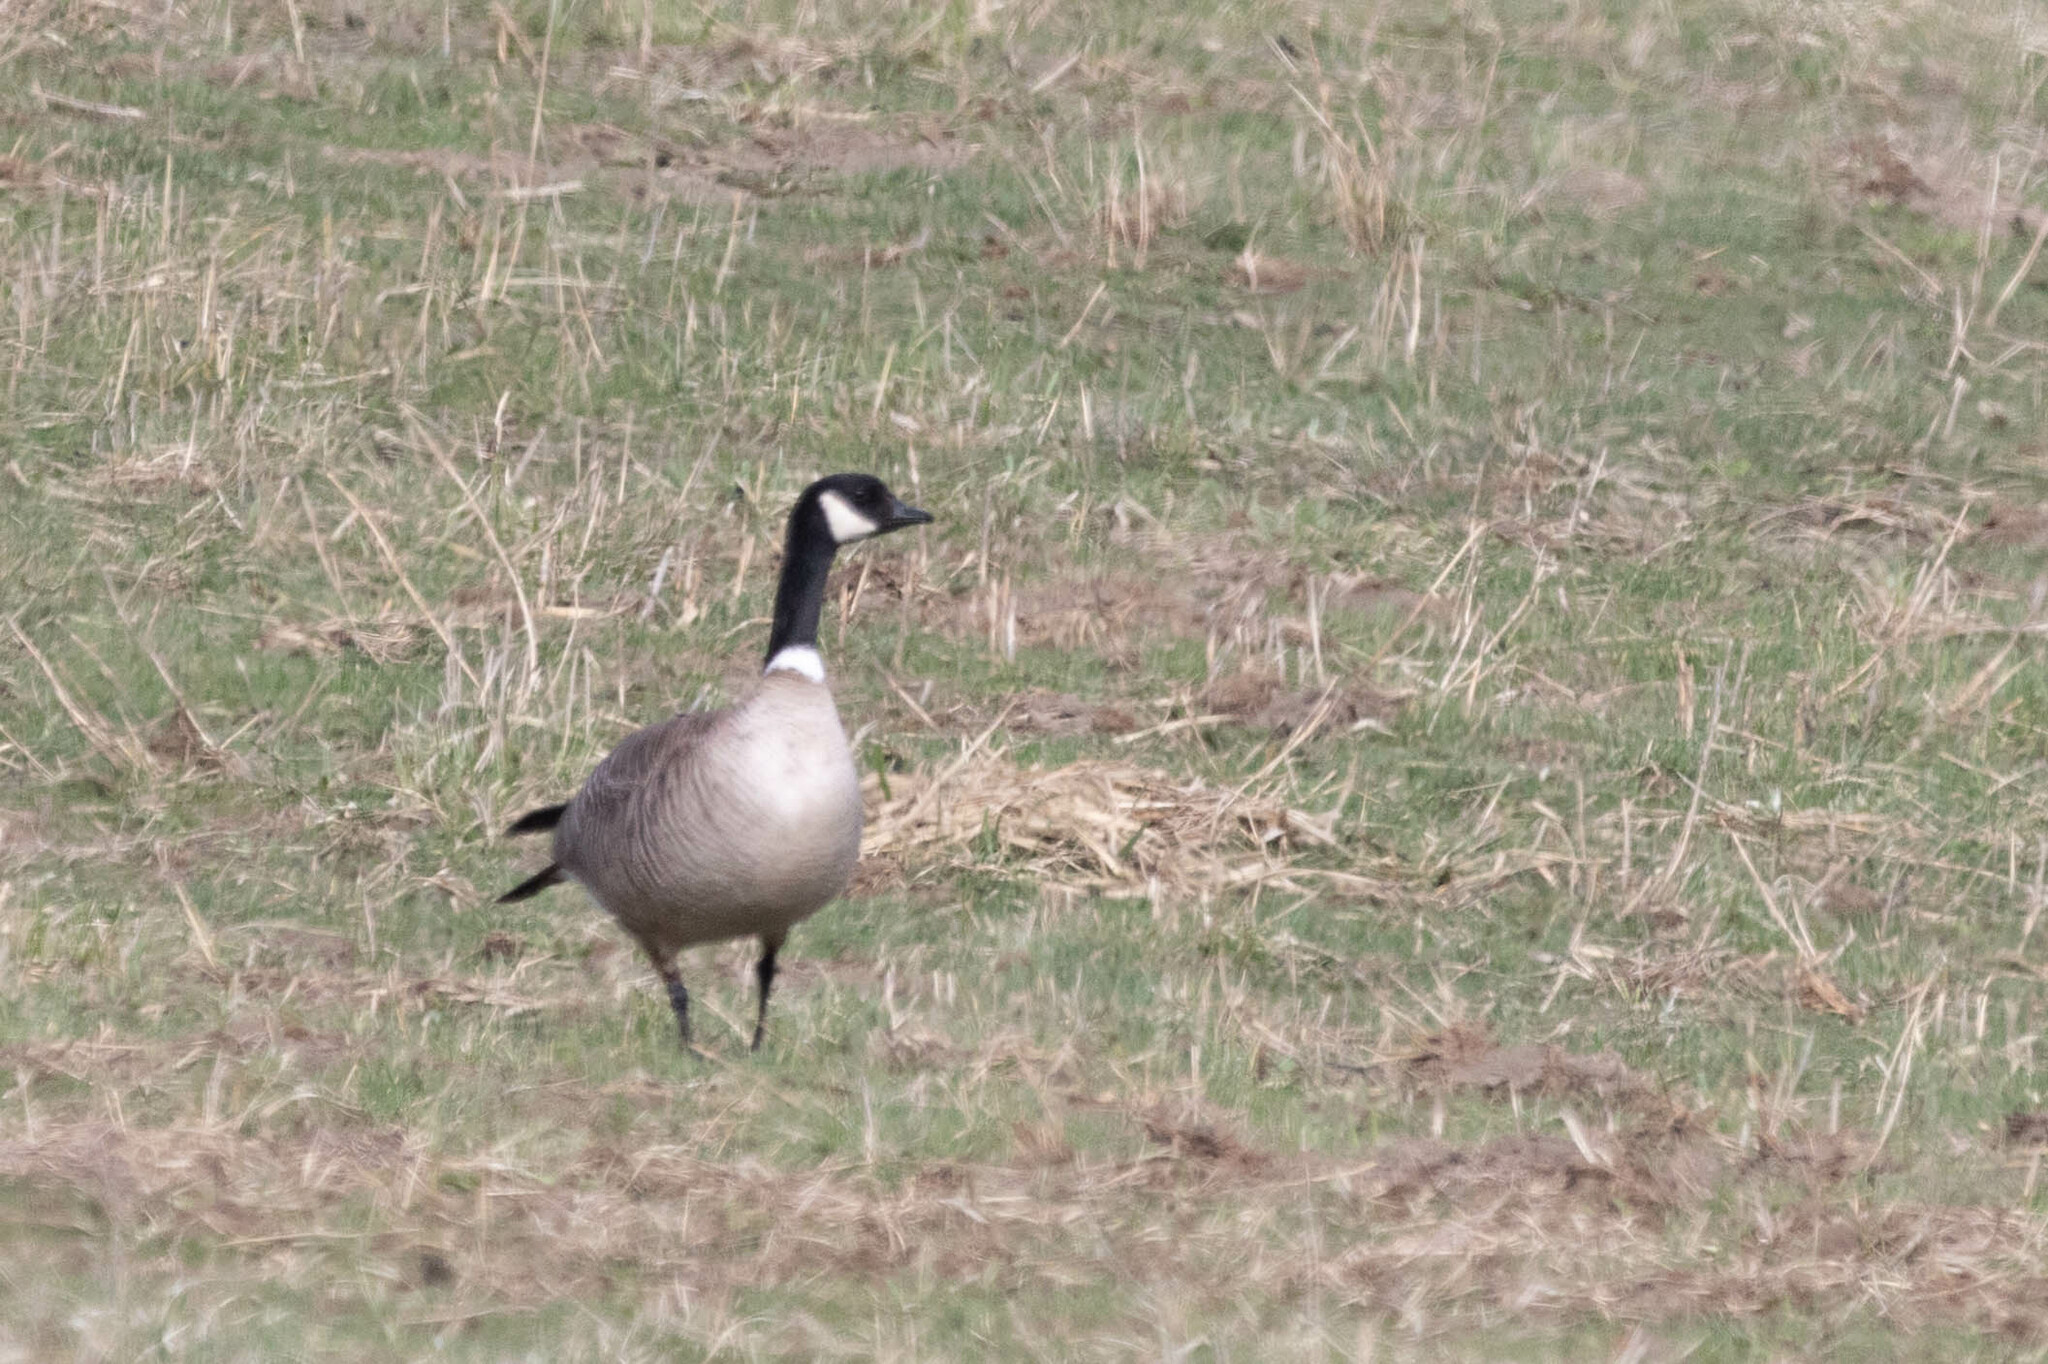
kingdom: Animalia
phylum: Chordata
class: Aves
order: Anseriformes
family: Anatidae
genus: Branta
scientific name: Branta hutchinsii
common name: Cackling goose
